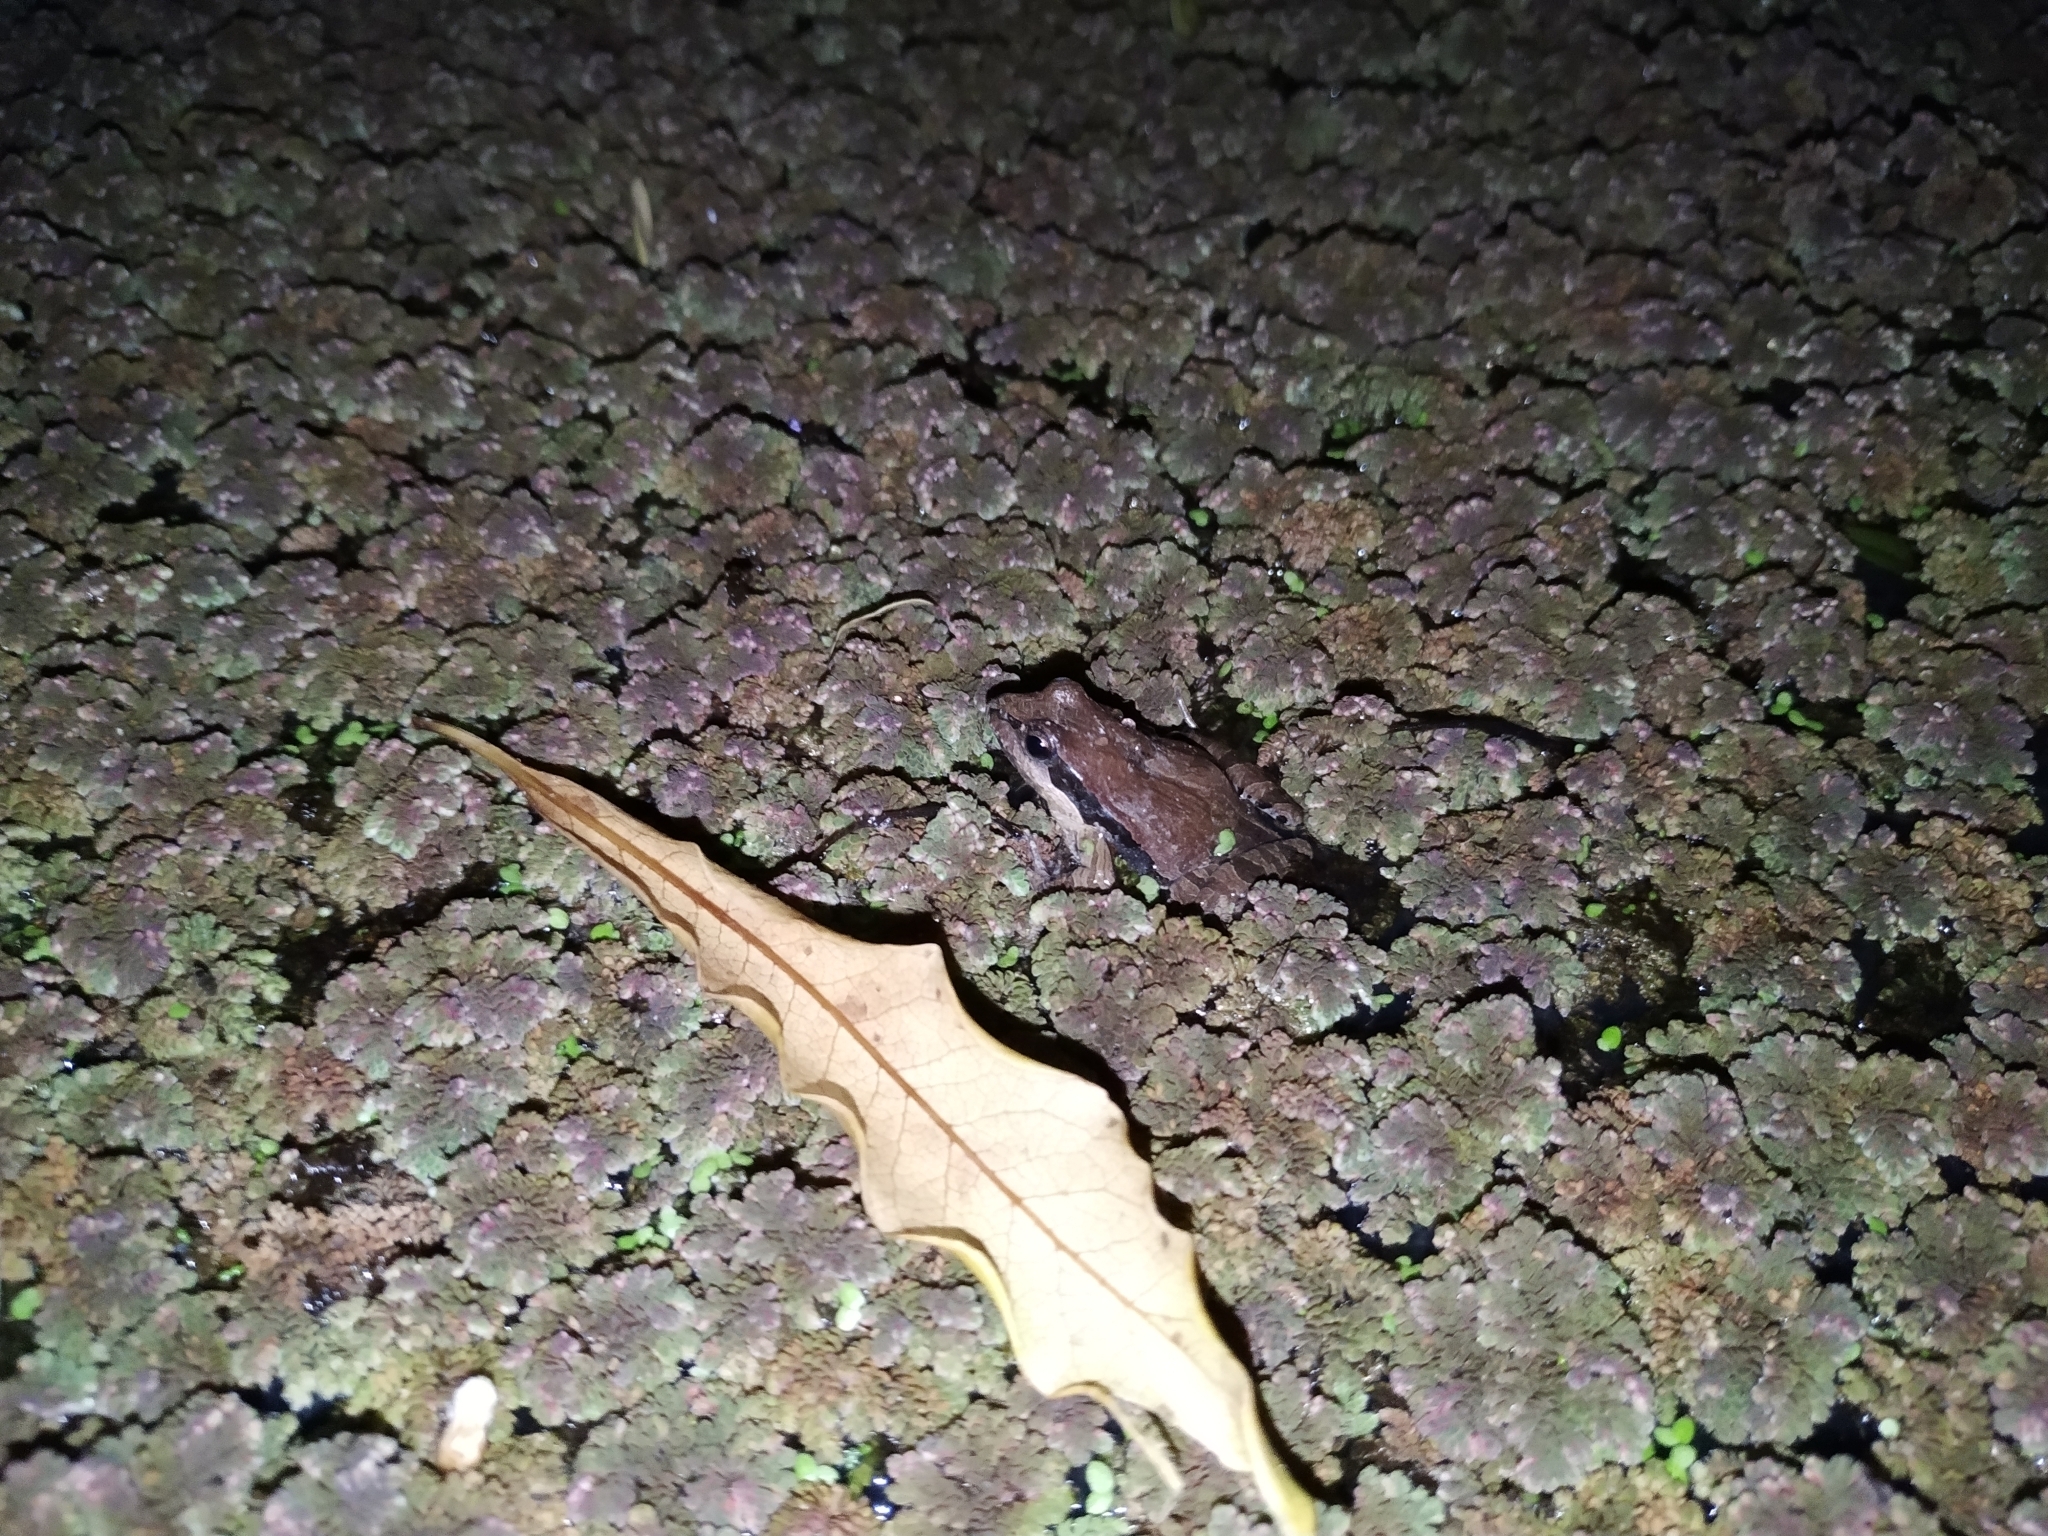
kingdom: Animalia
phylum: Chordata
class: Amphibia
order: Anura
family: Leptodactylidae
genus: Physalaemus
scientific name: Physalaemus gracilis
